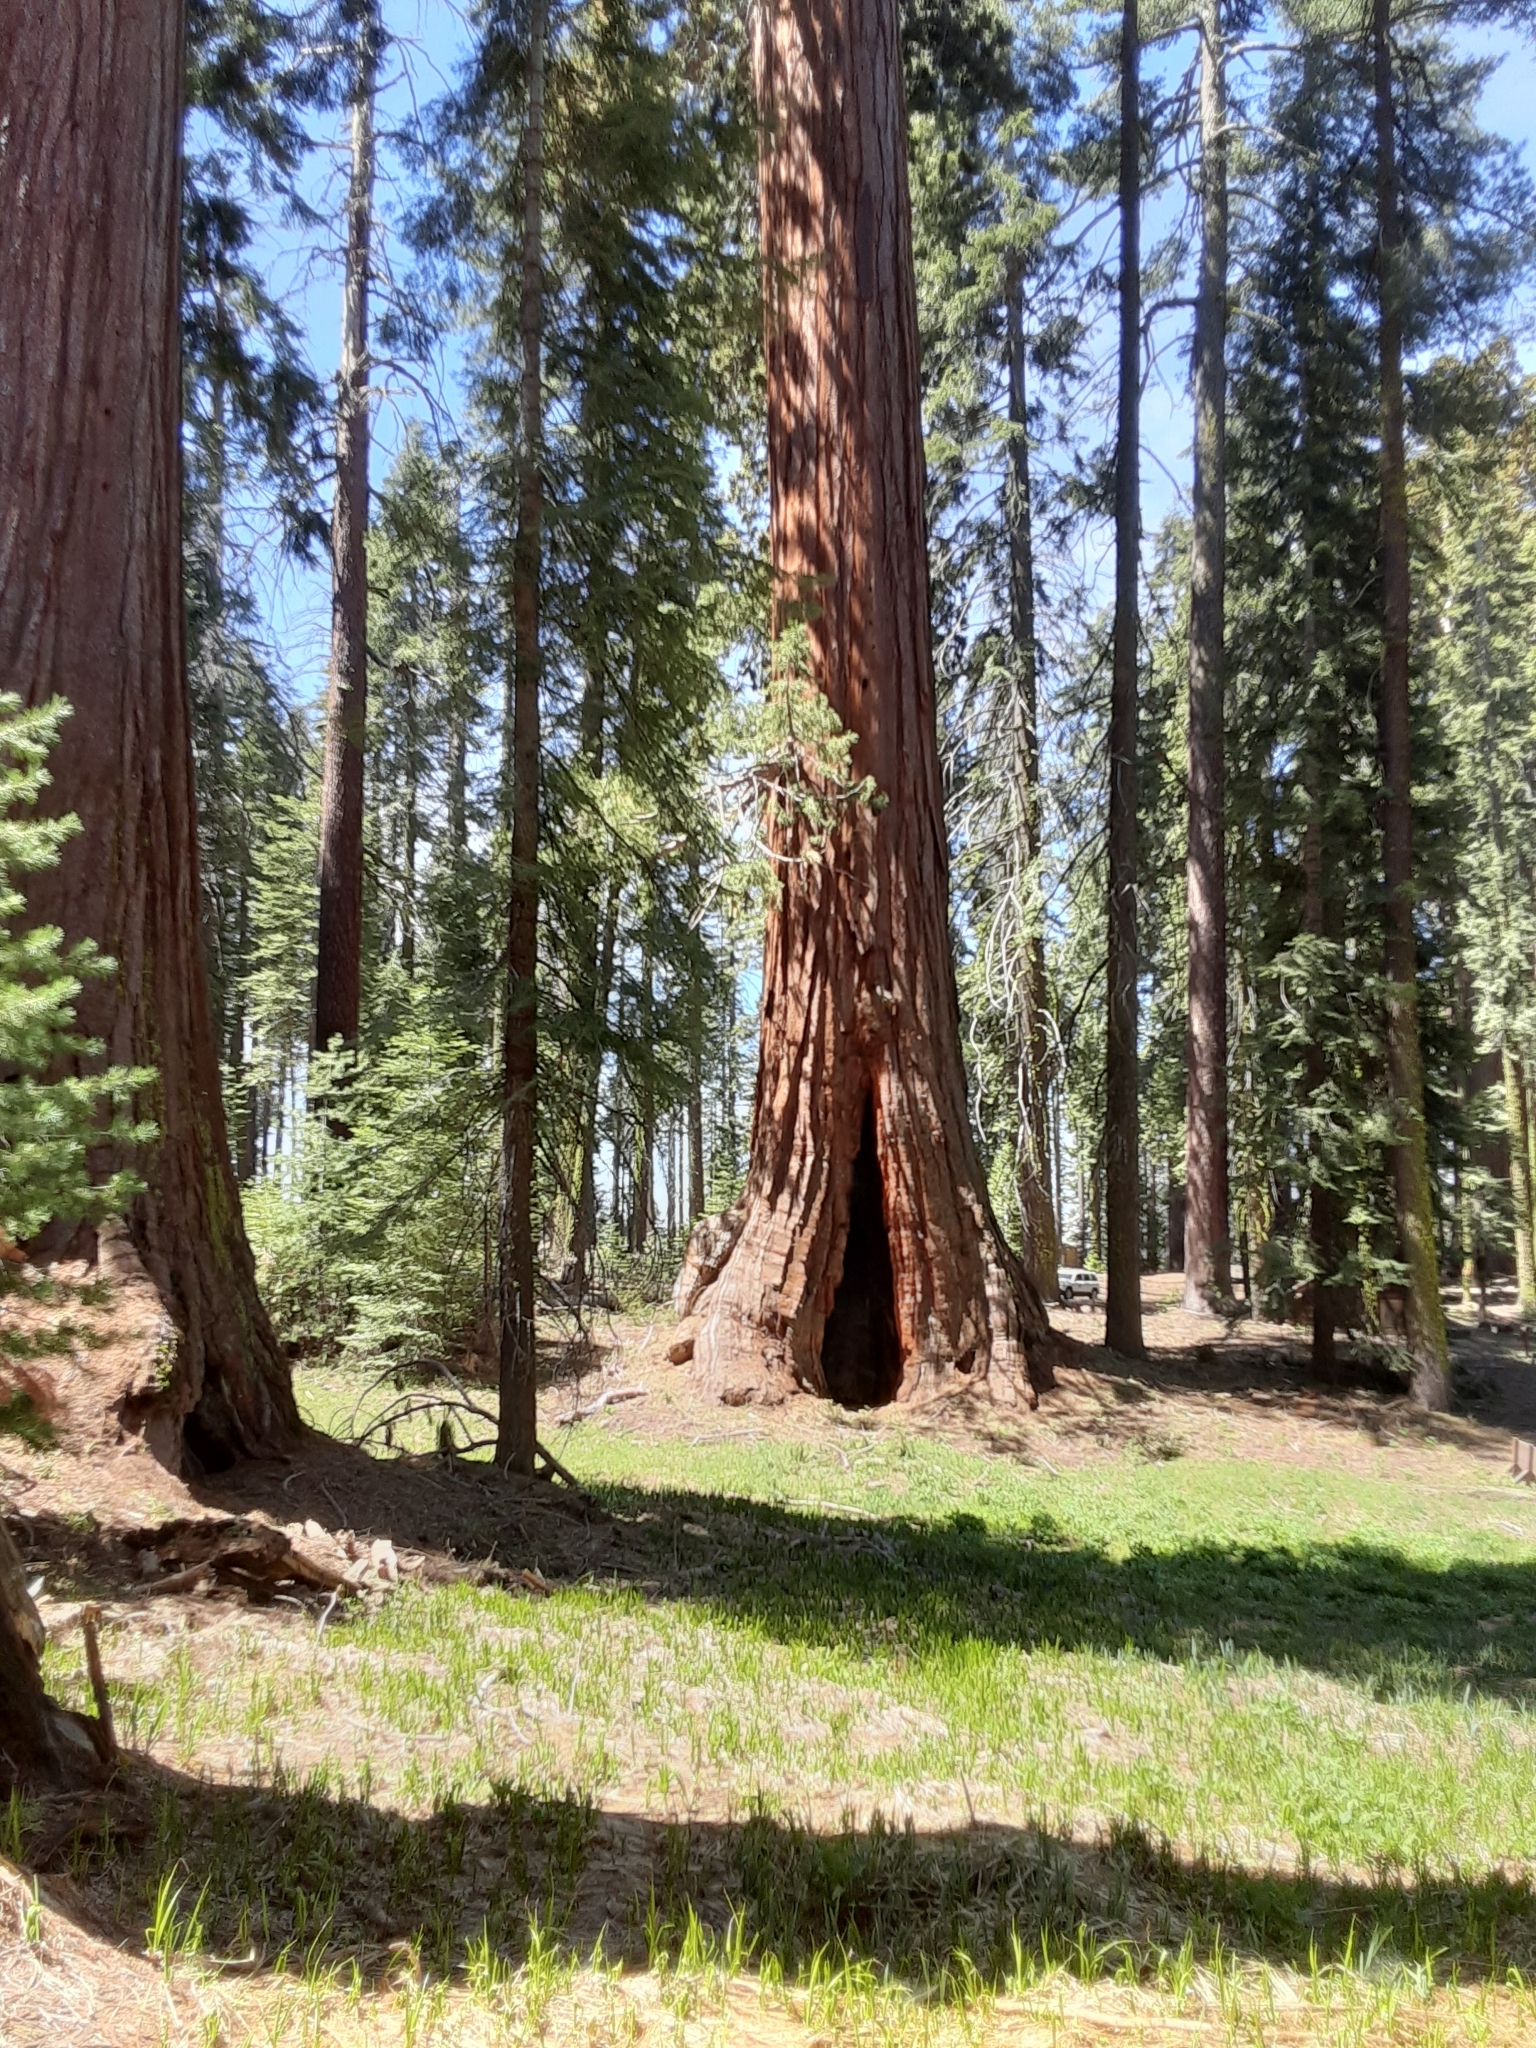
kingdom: Plantae
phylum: Tracheophyta
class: Pinopsida
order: Pinales
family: Cupressaceae
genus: Sequoiadendron
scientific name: Sequoiadendron giganteum
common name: Wellingtonia
